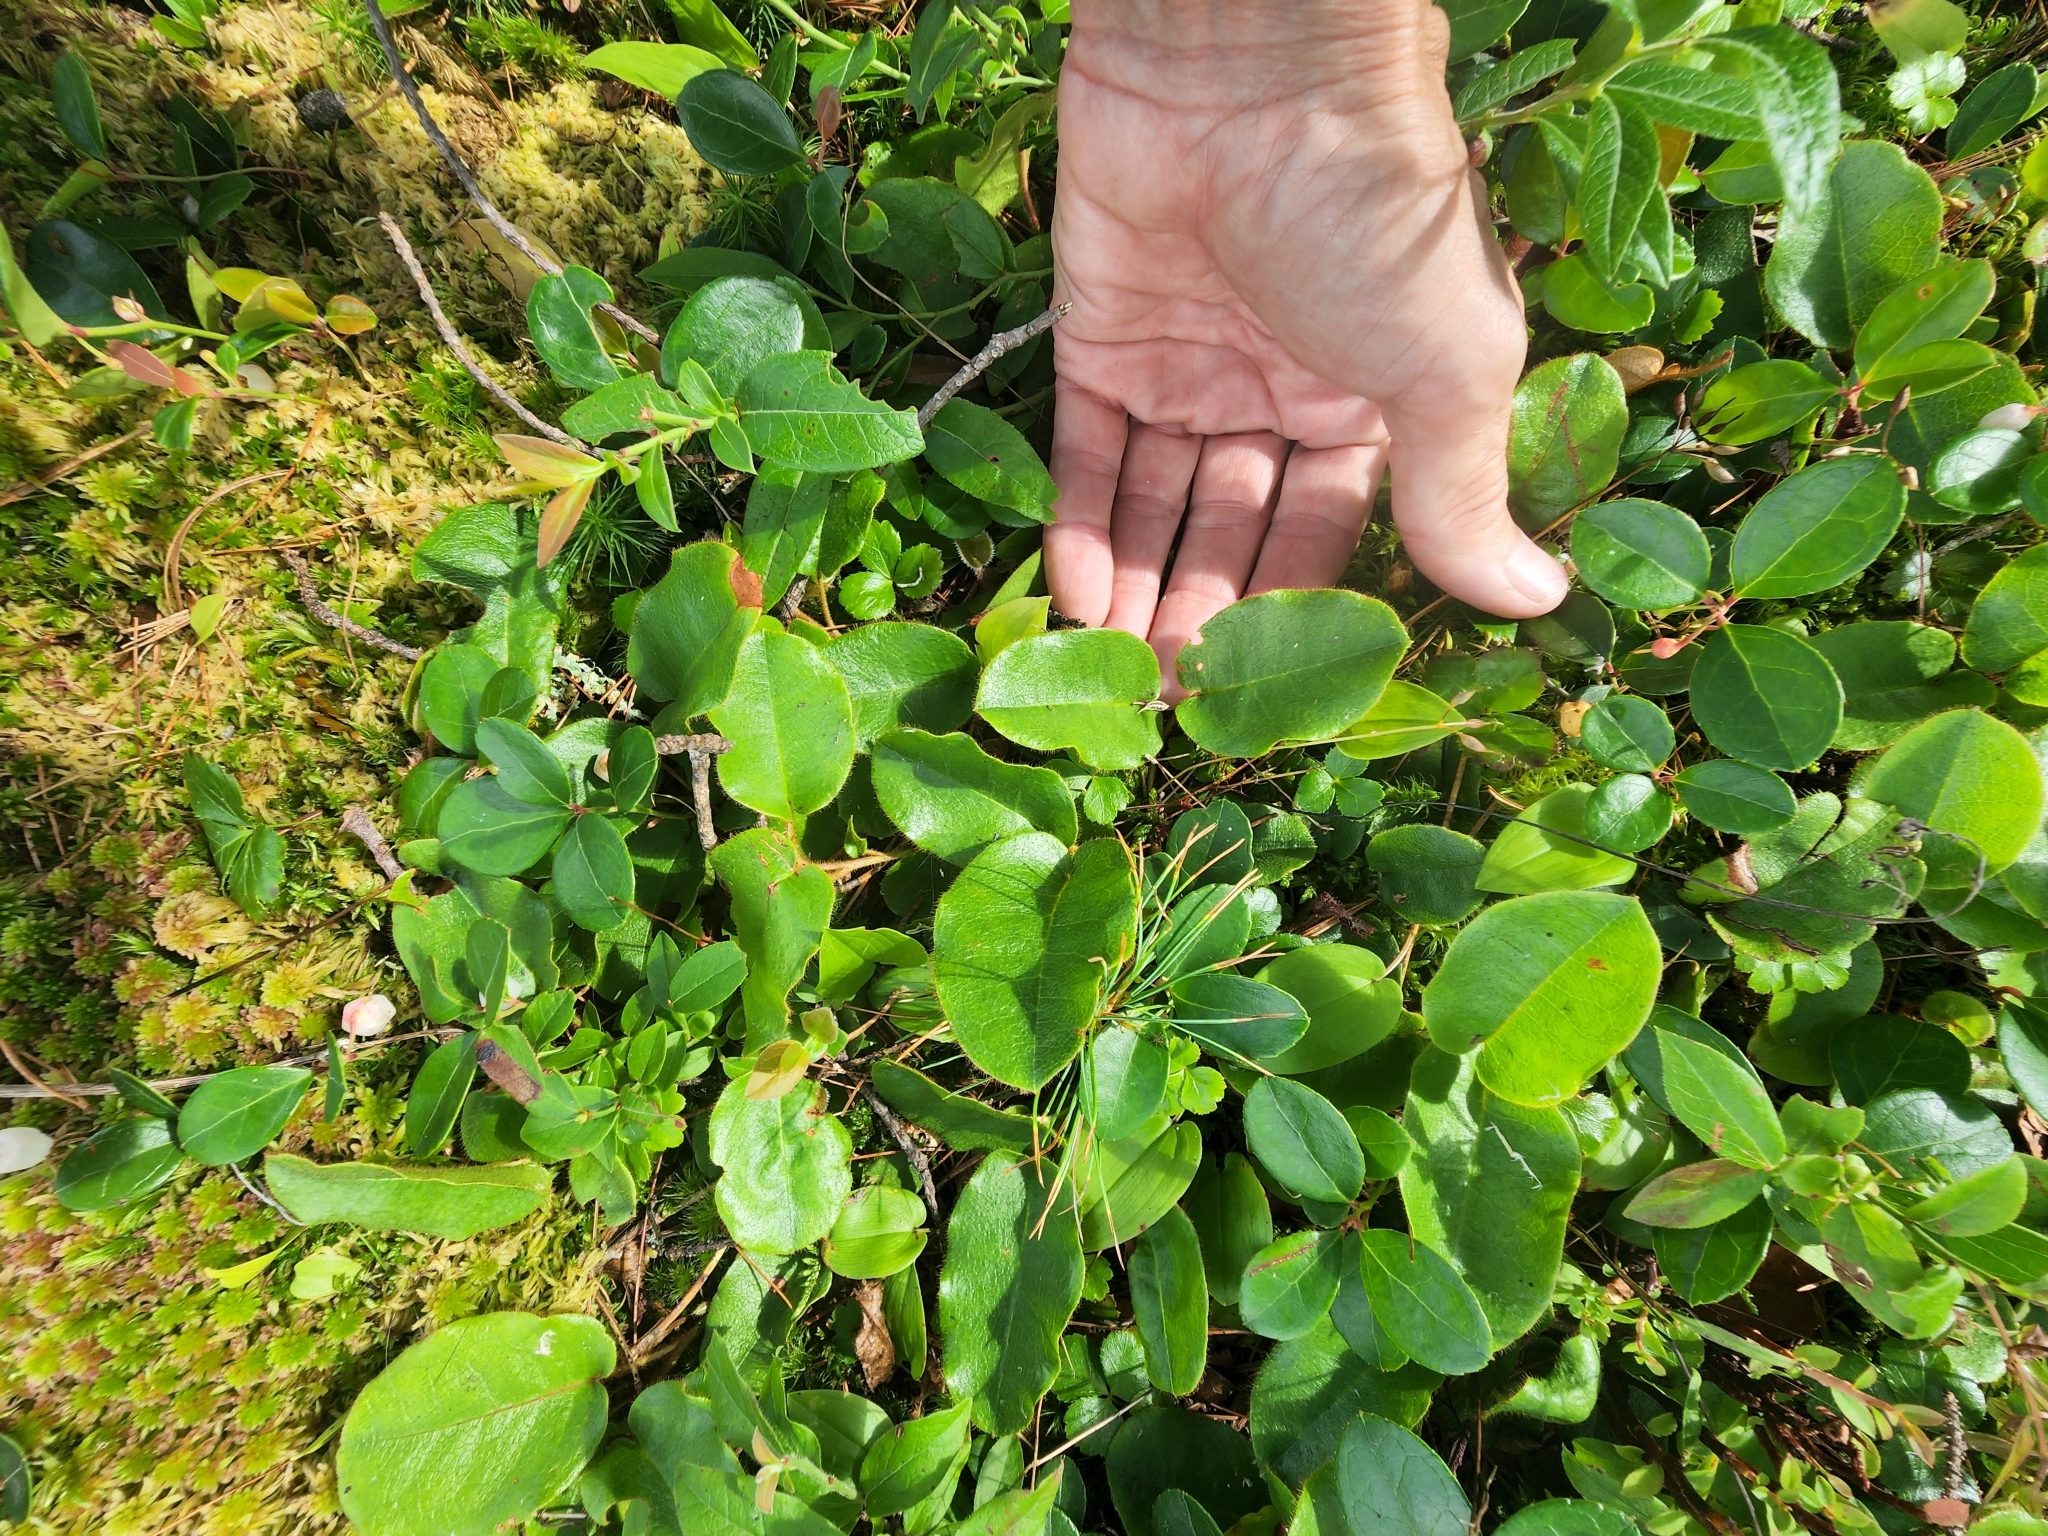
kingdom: Plantae
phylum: Tracheophyta
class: Magnoliopsida
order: Ericales
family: Ericaceae
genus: Epigaea
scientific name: Epigaea repens
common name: Gravelroot
